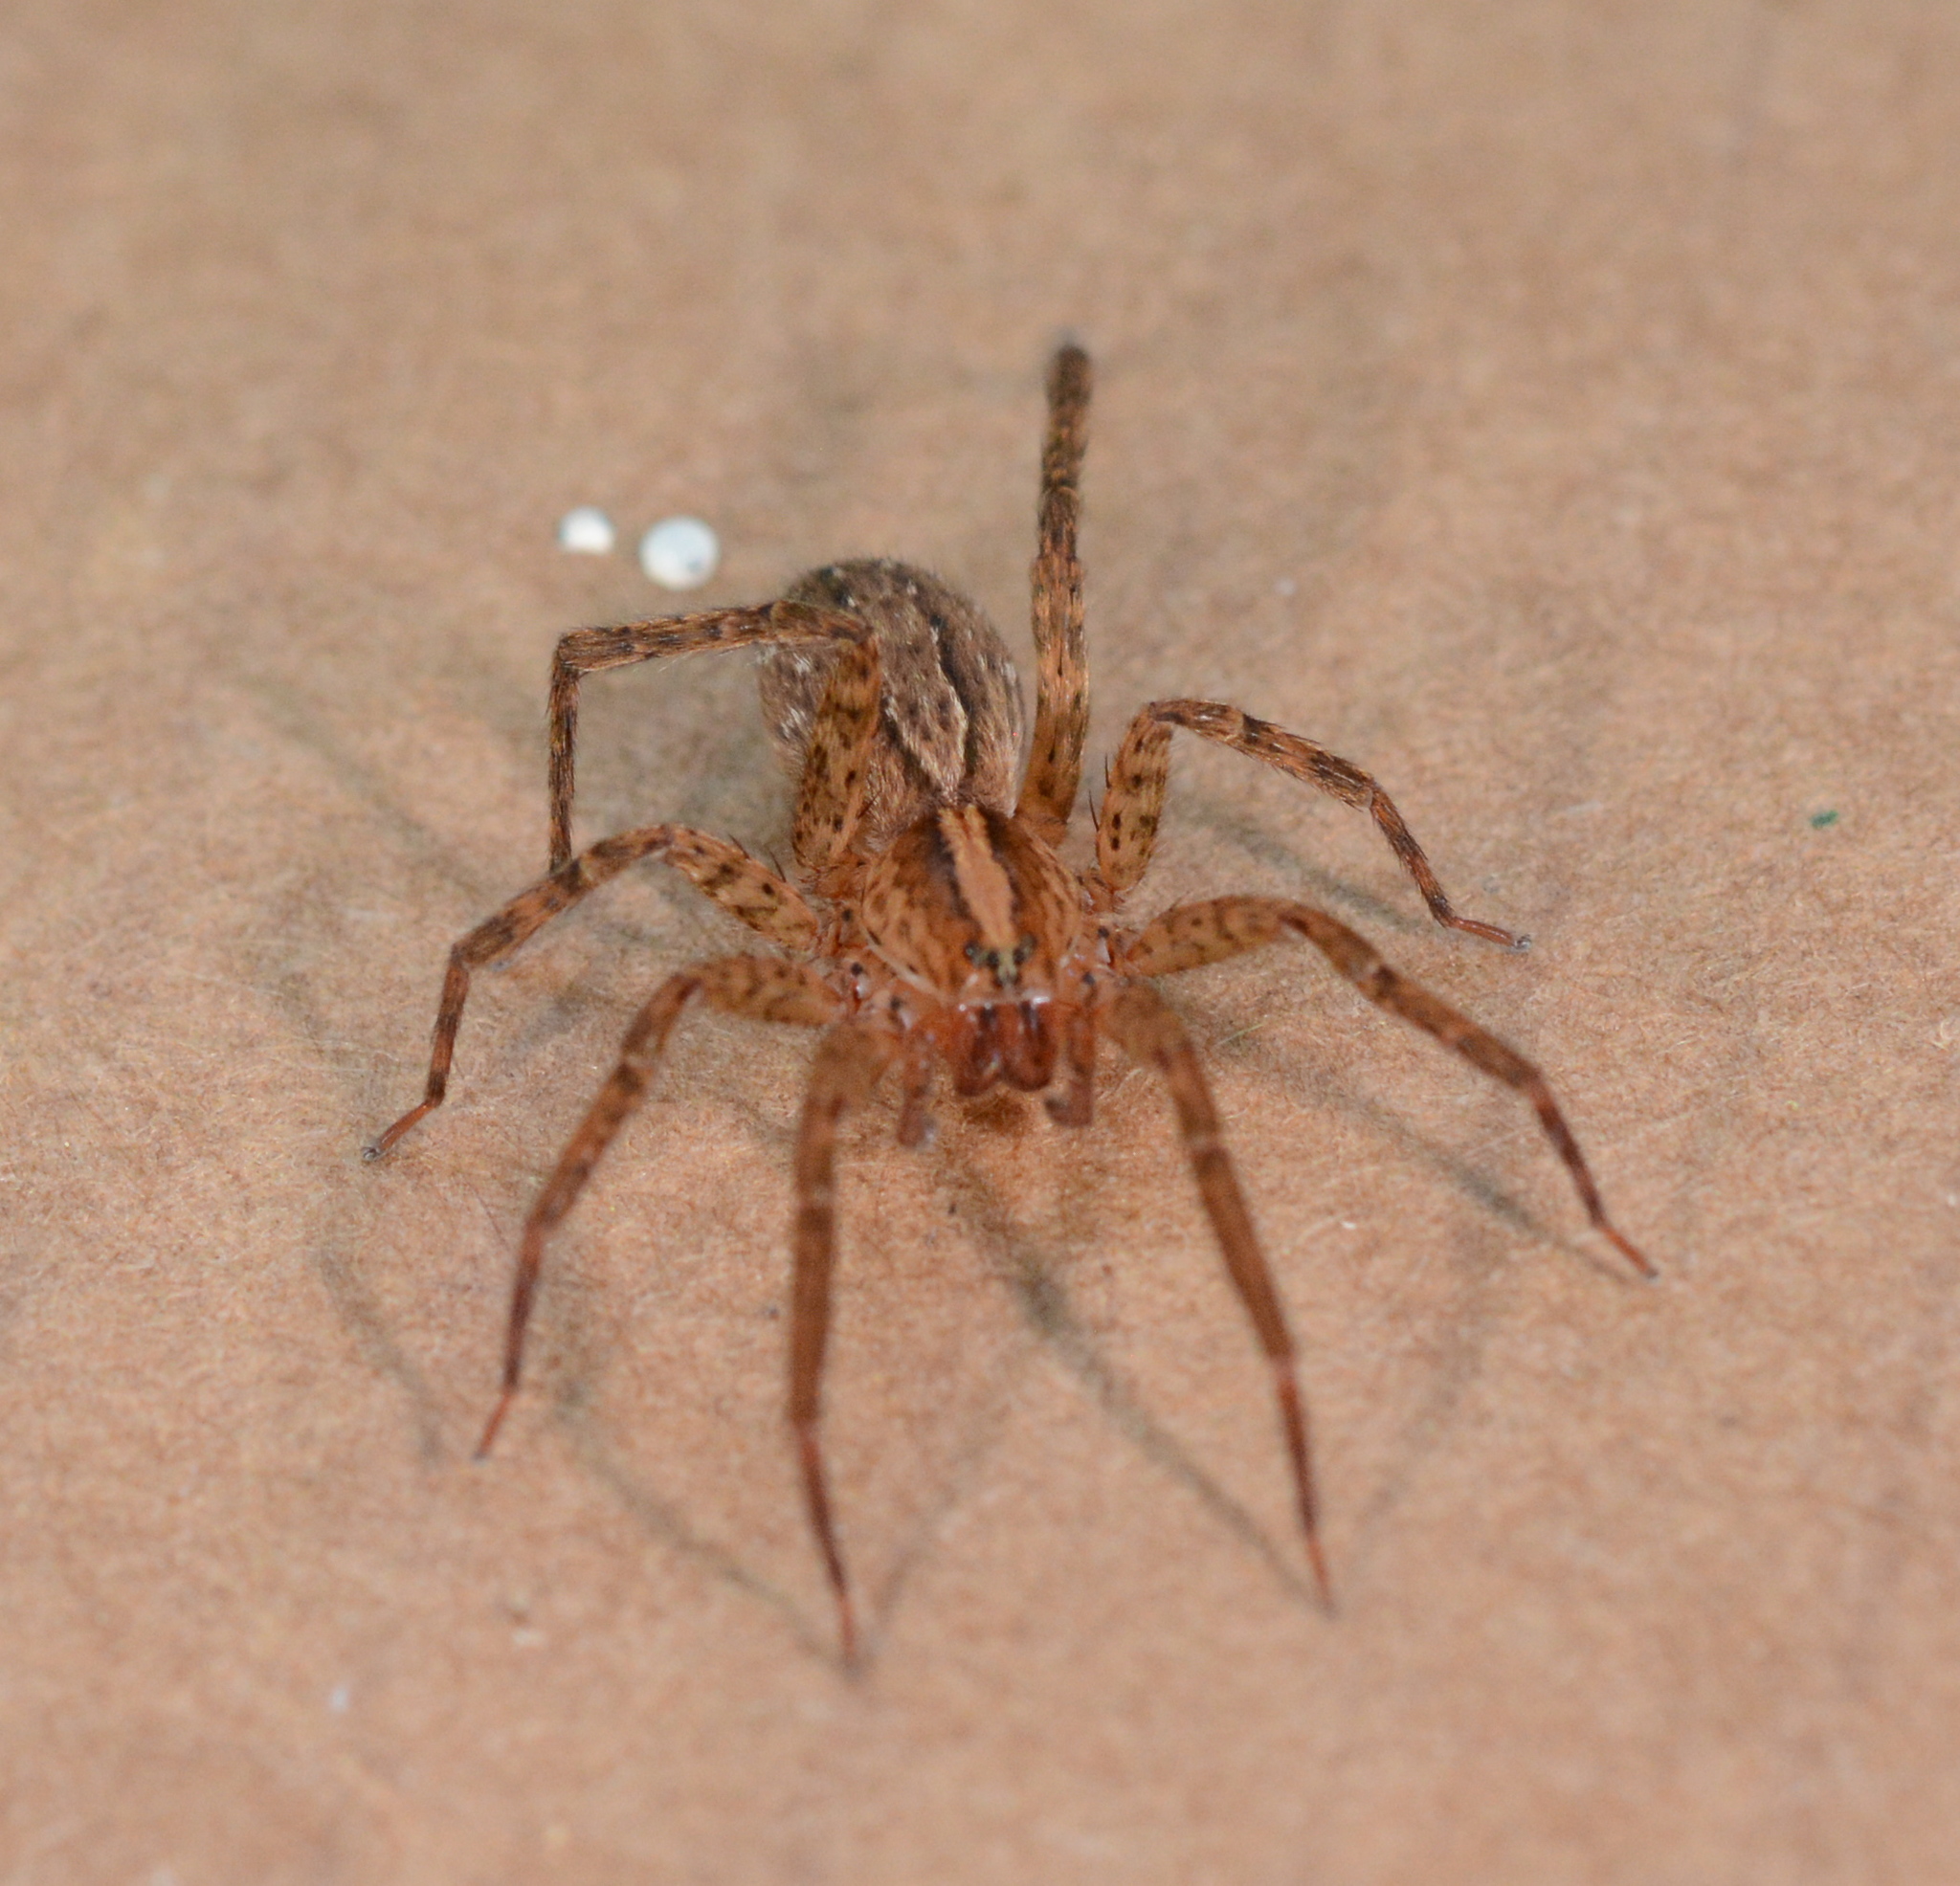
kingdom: Animalia
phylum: Arthropoda
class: Arachnida
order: Araneae
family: Ctenidae
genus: Anahita
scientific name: Anahita punctulata
